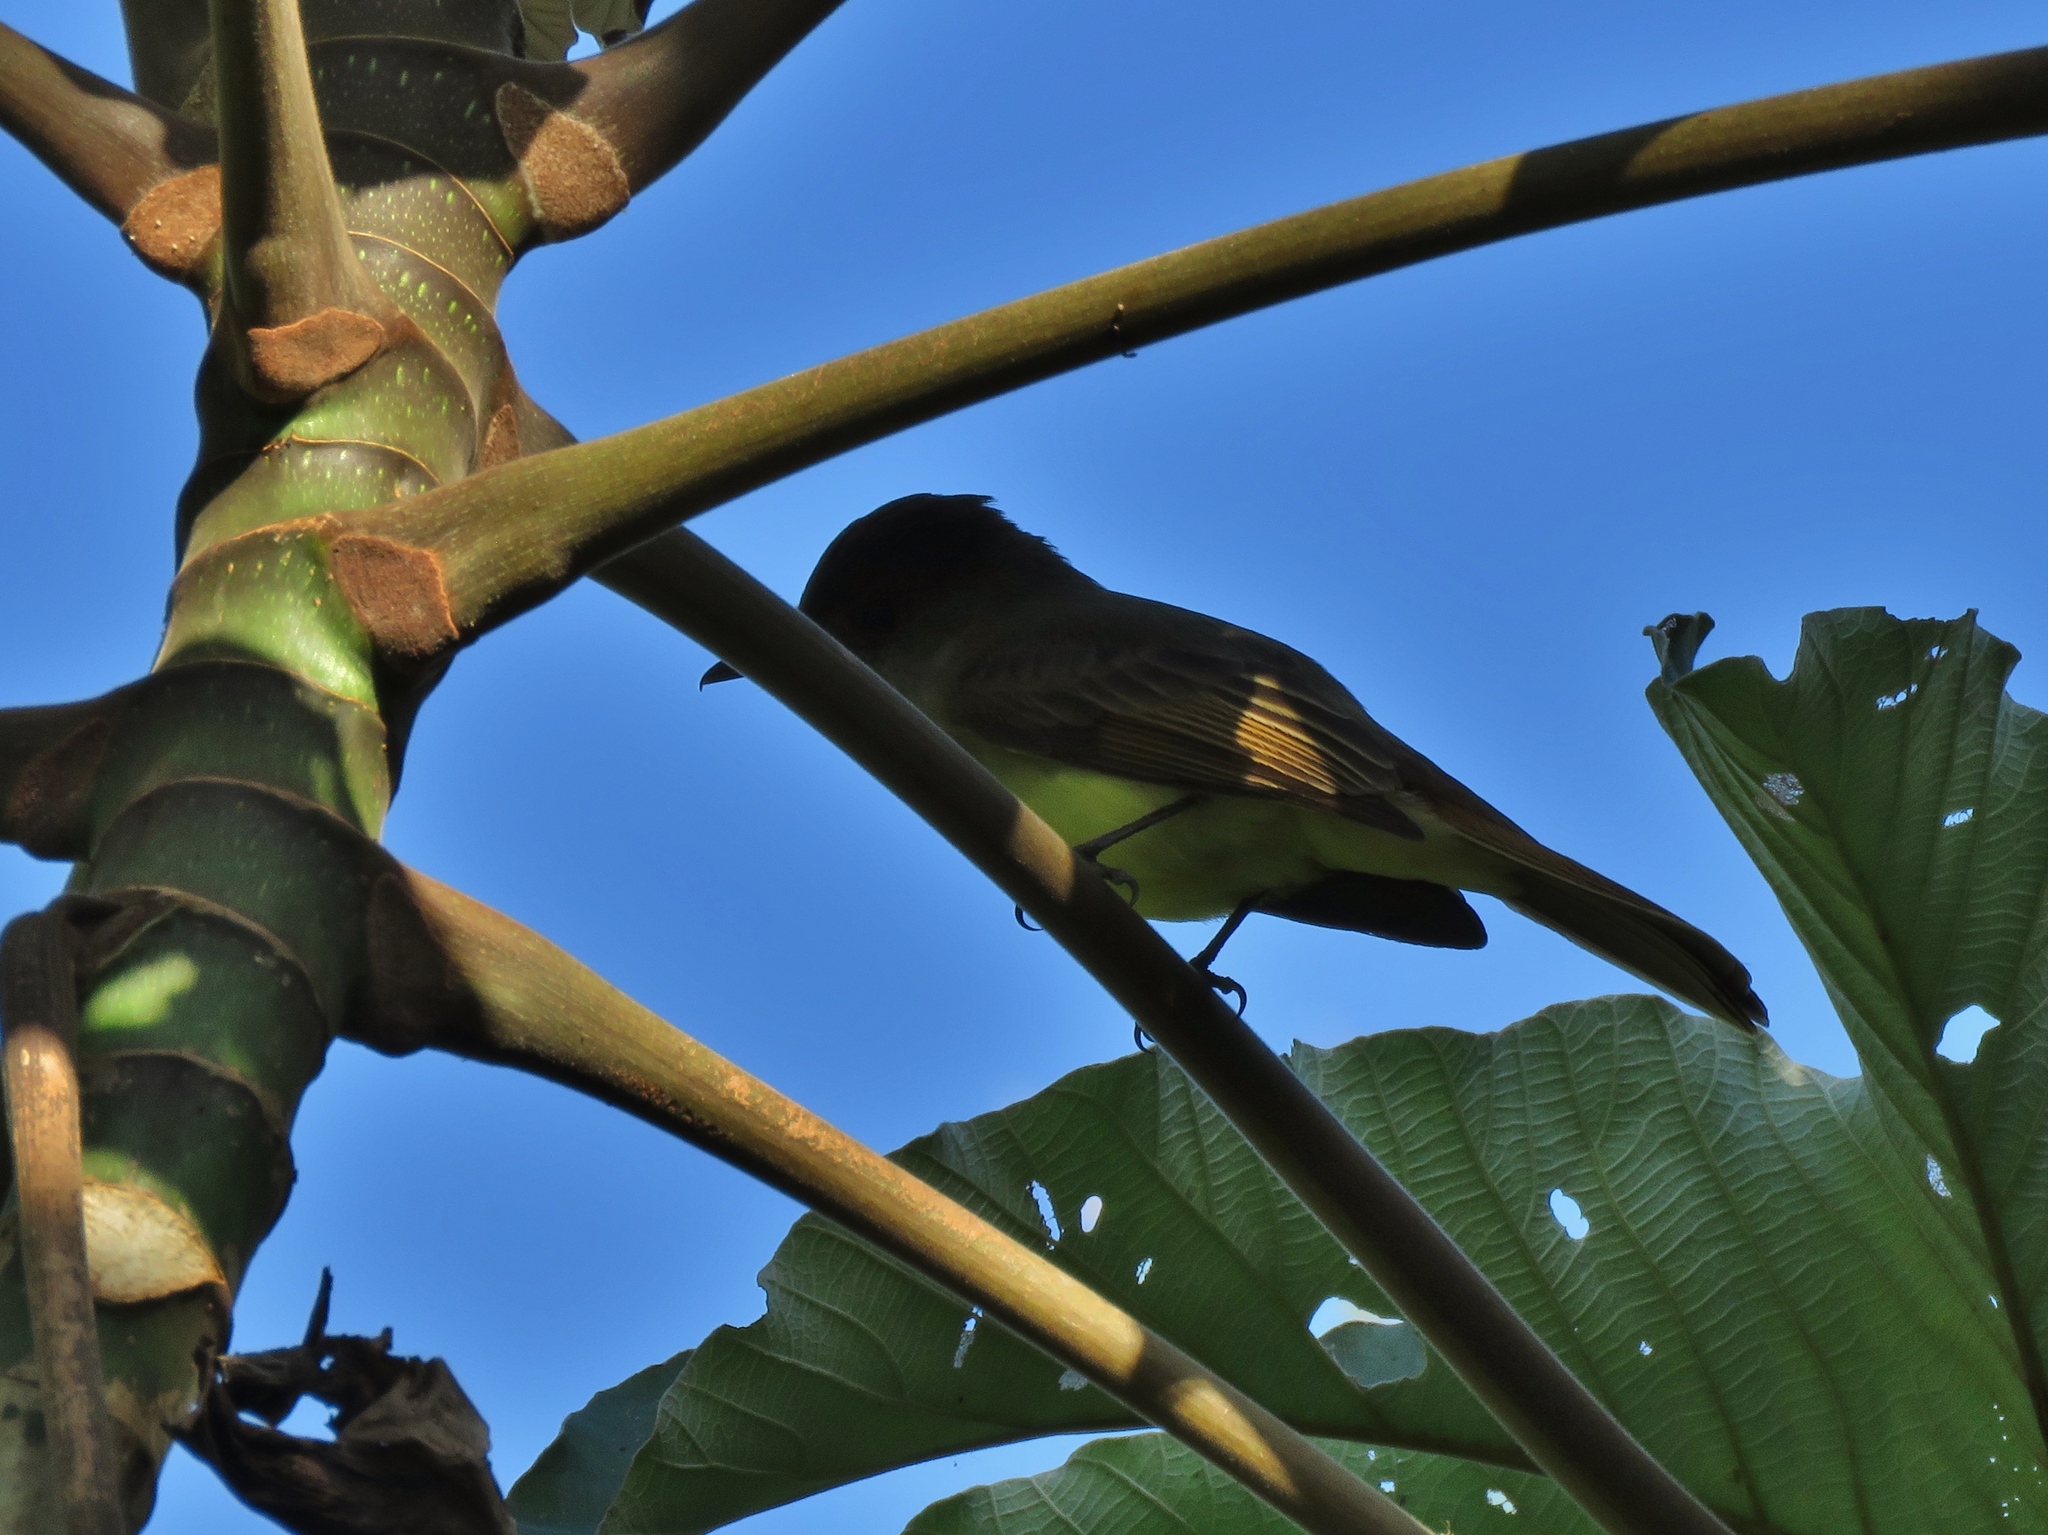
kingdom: Animalia
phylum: Chordata
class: Aves
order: Passeriformes
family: Tyrannidae
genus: Myiarchus
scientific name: Myiarchus tuberculifer
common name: Dusky-capped flycatcher
